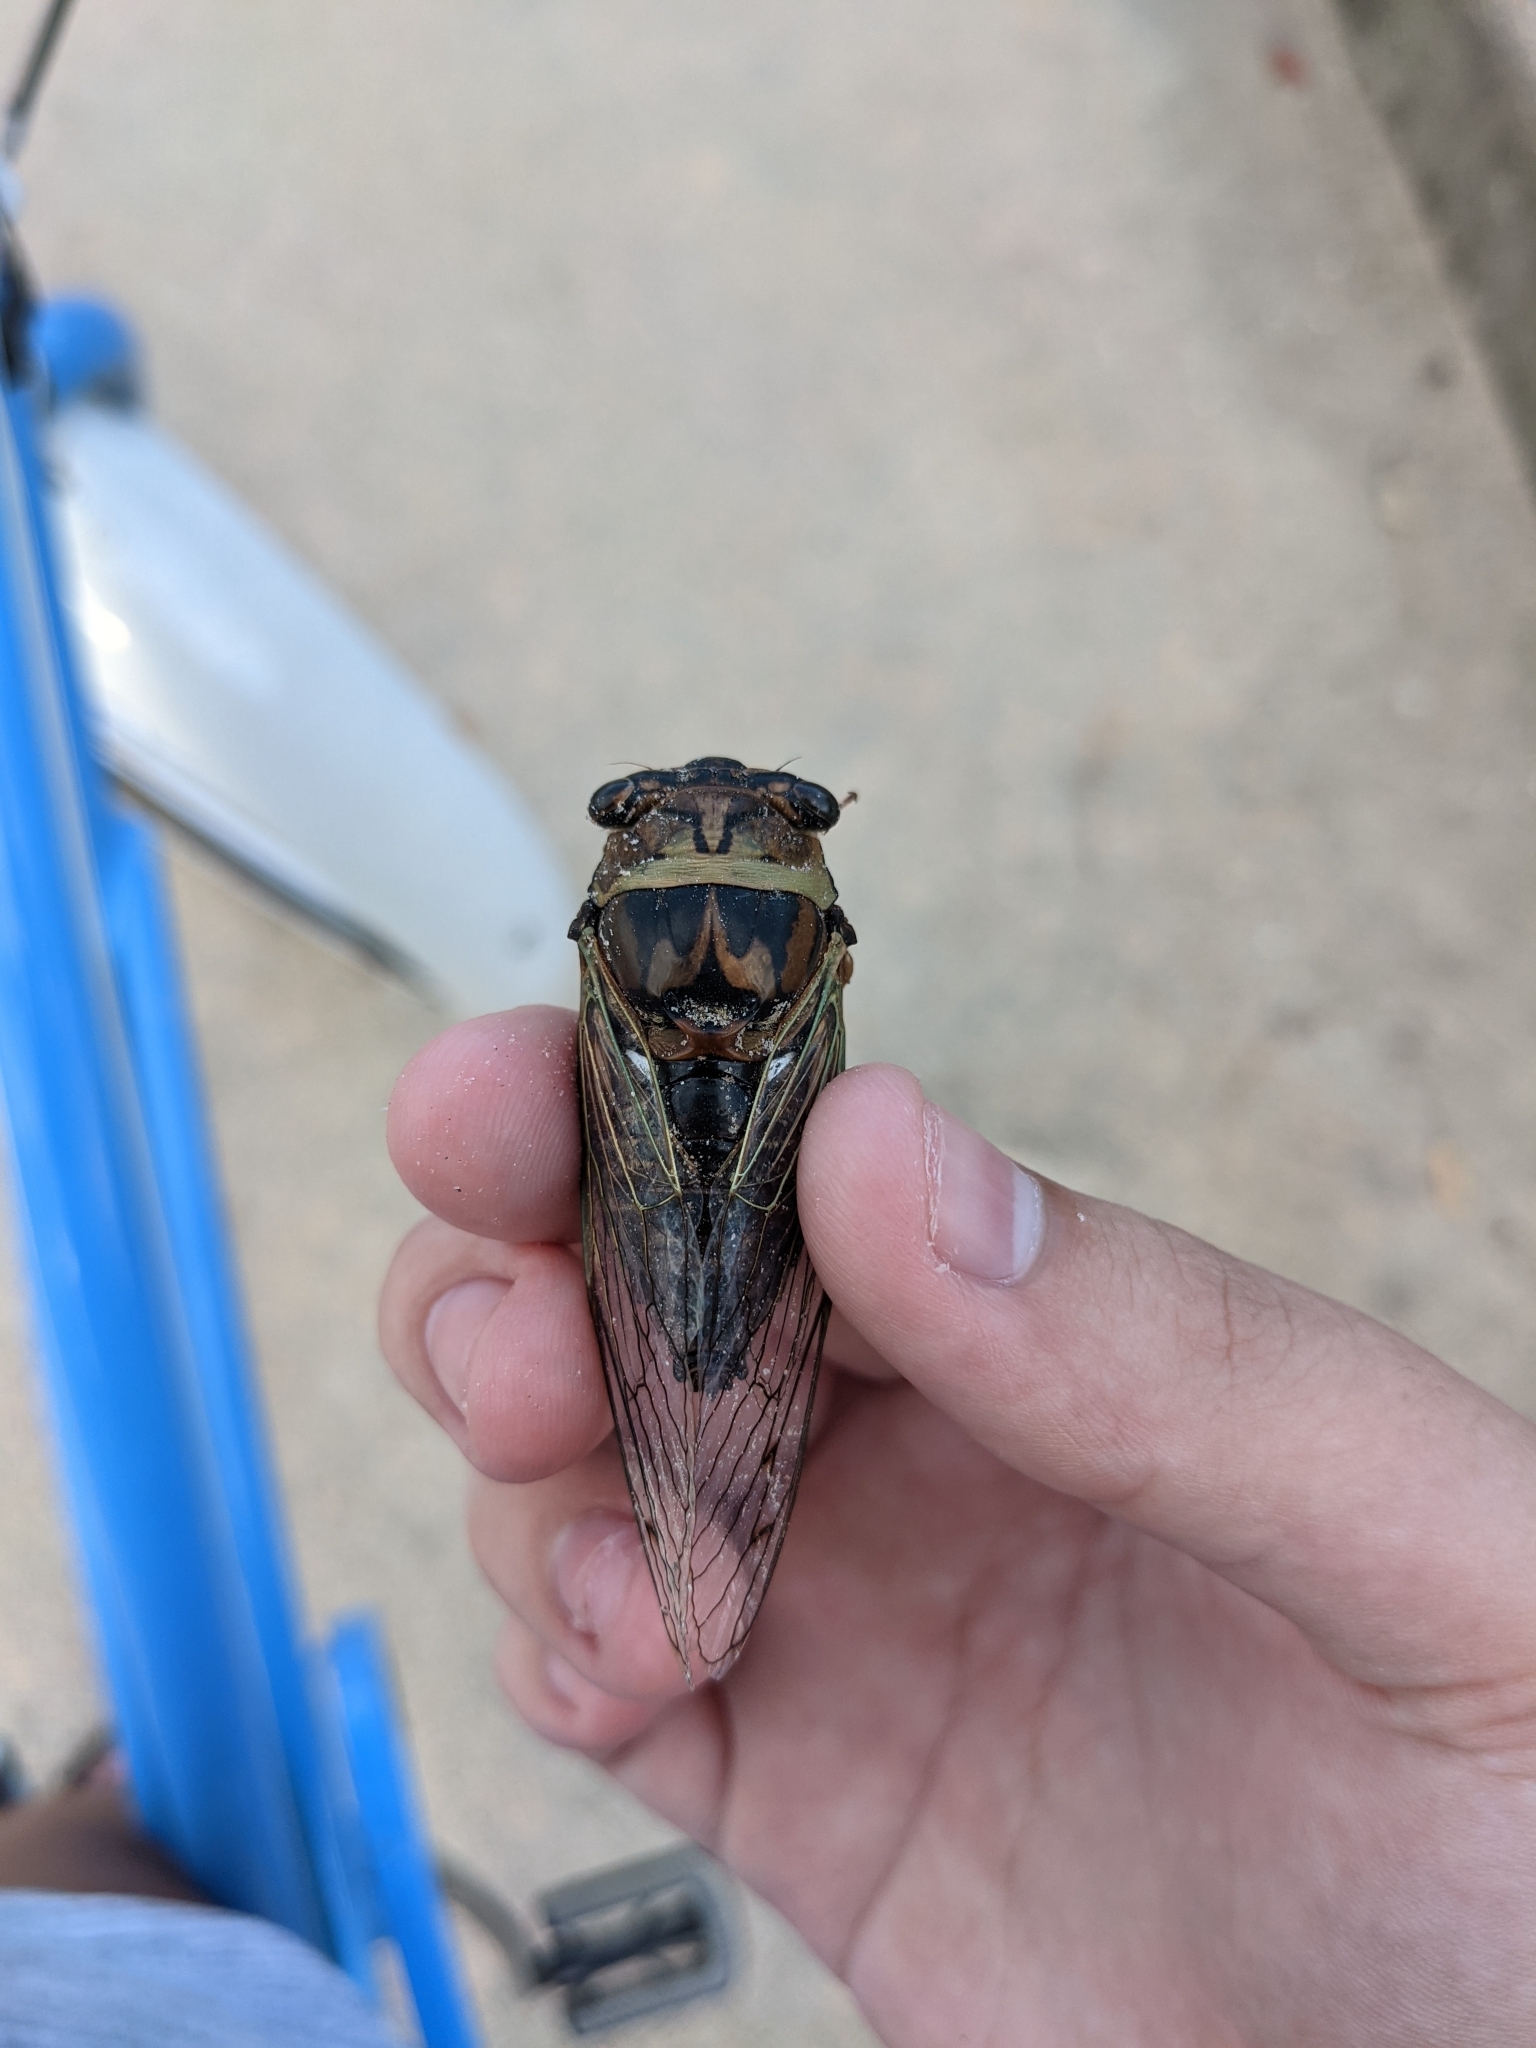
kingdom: Animalia
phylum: Arthropoda
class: Insecta
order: Hemiptera
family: Cicadidae
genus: Megatibicen
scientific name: Megatibicen resh
